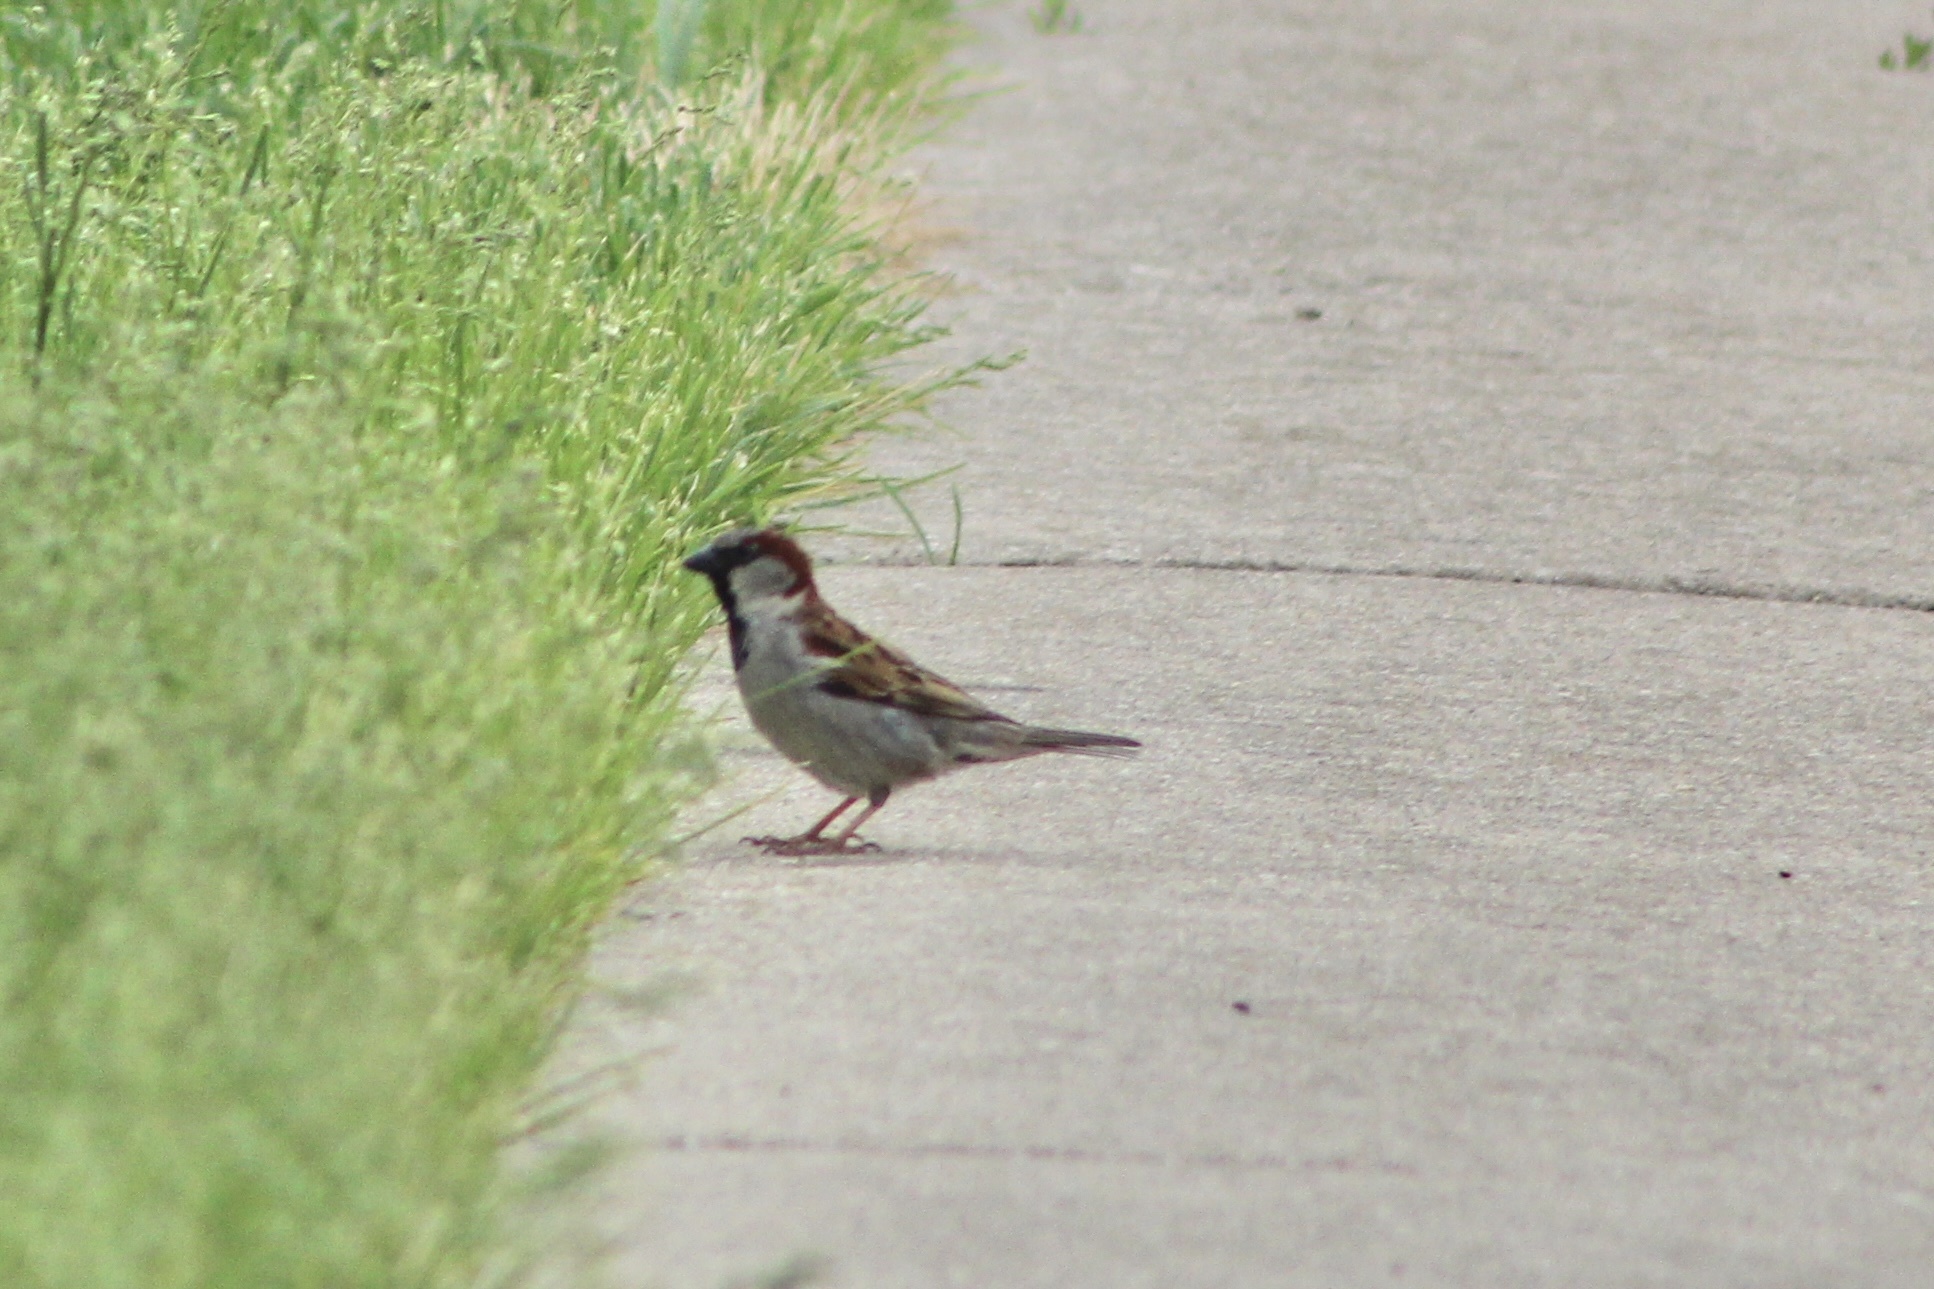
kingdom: Animalia
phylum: Chordata
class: Aves
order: Passeriformes
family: Passeridae
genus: Passer
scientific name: Passer domesticus
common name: House sparrow
